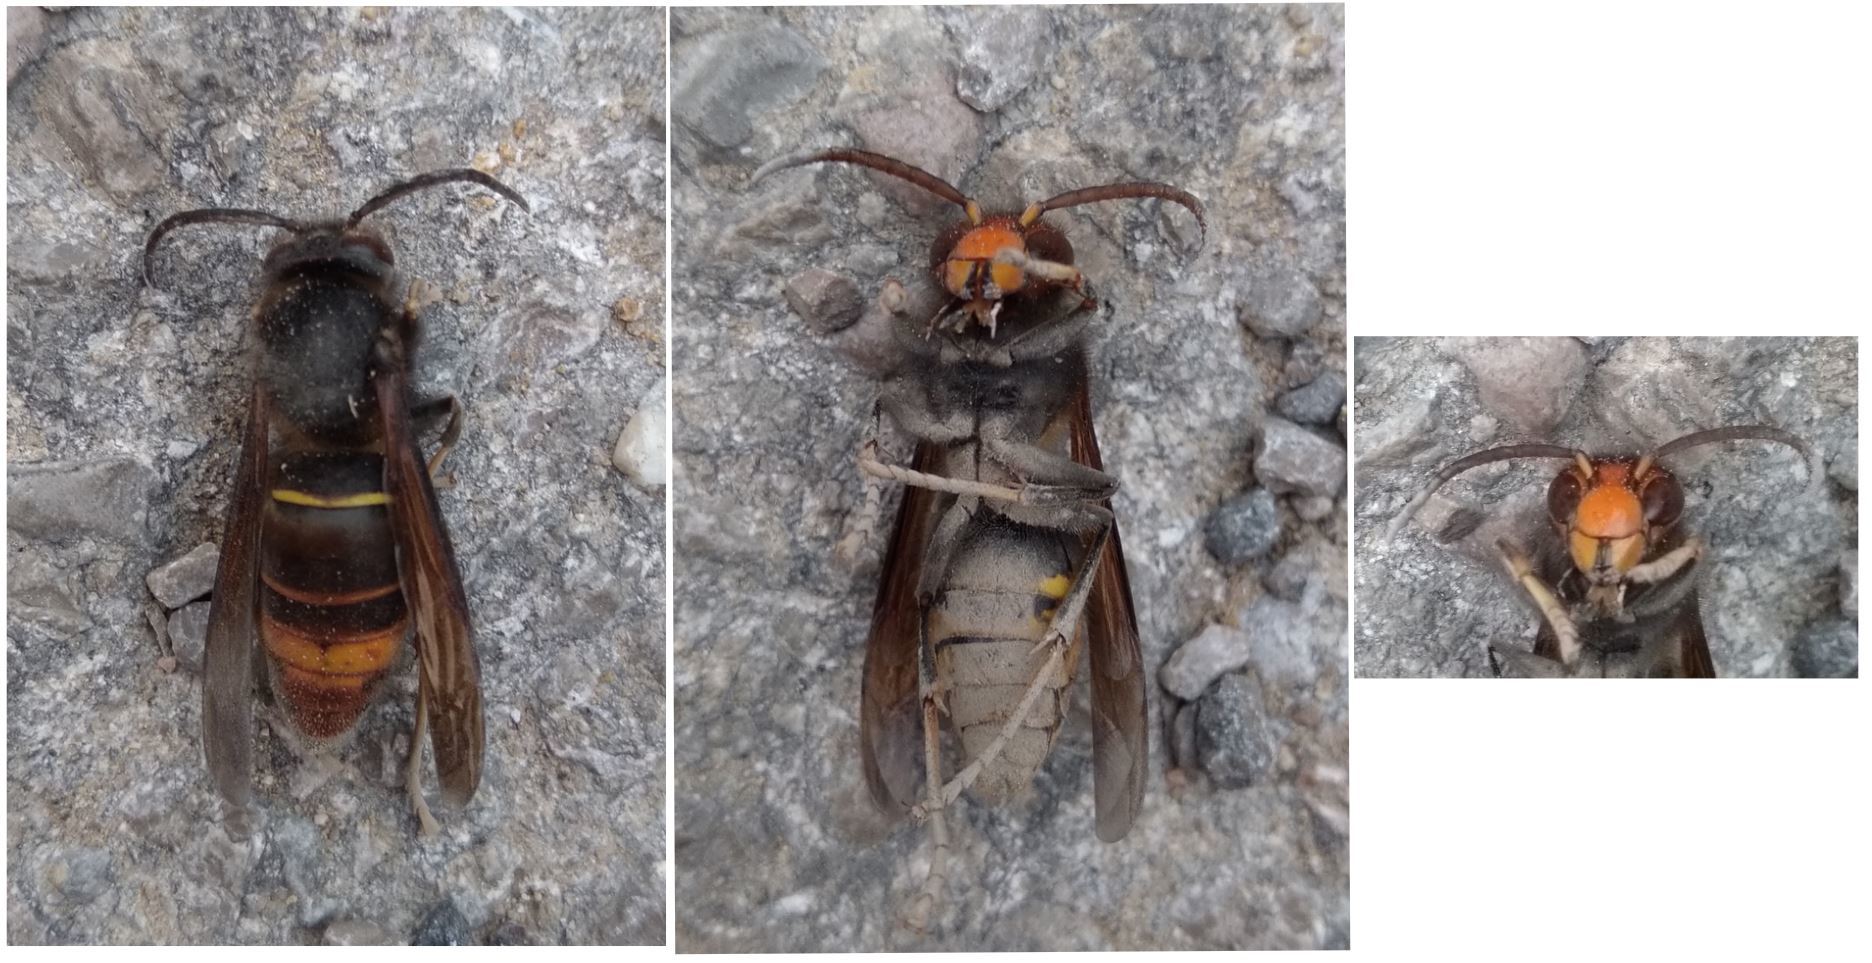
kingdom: Animalia
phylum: Arthropoda
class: Insecta
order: Hymenoptera
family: Vespidae
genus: Vespa
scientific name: Vespa velutina
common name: Asian hornet
